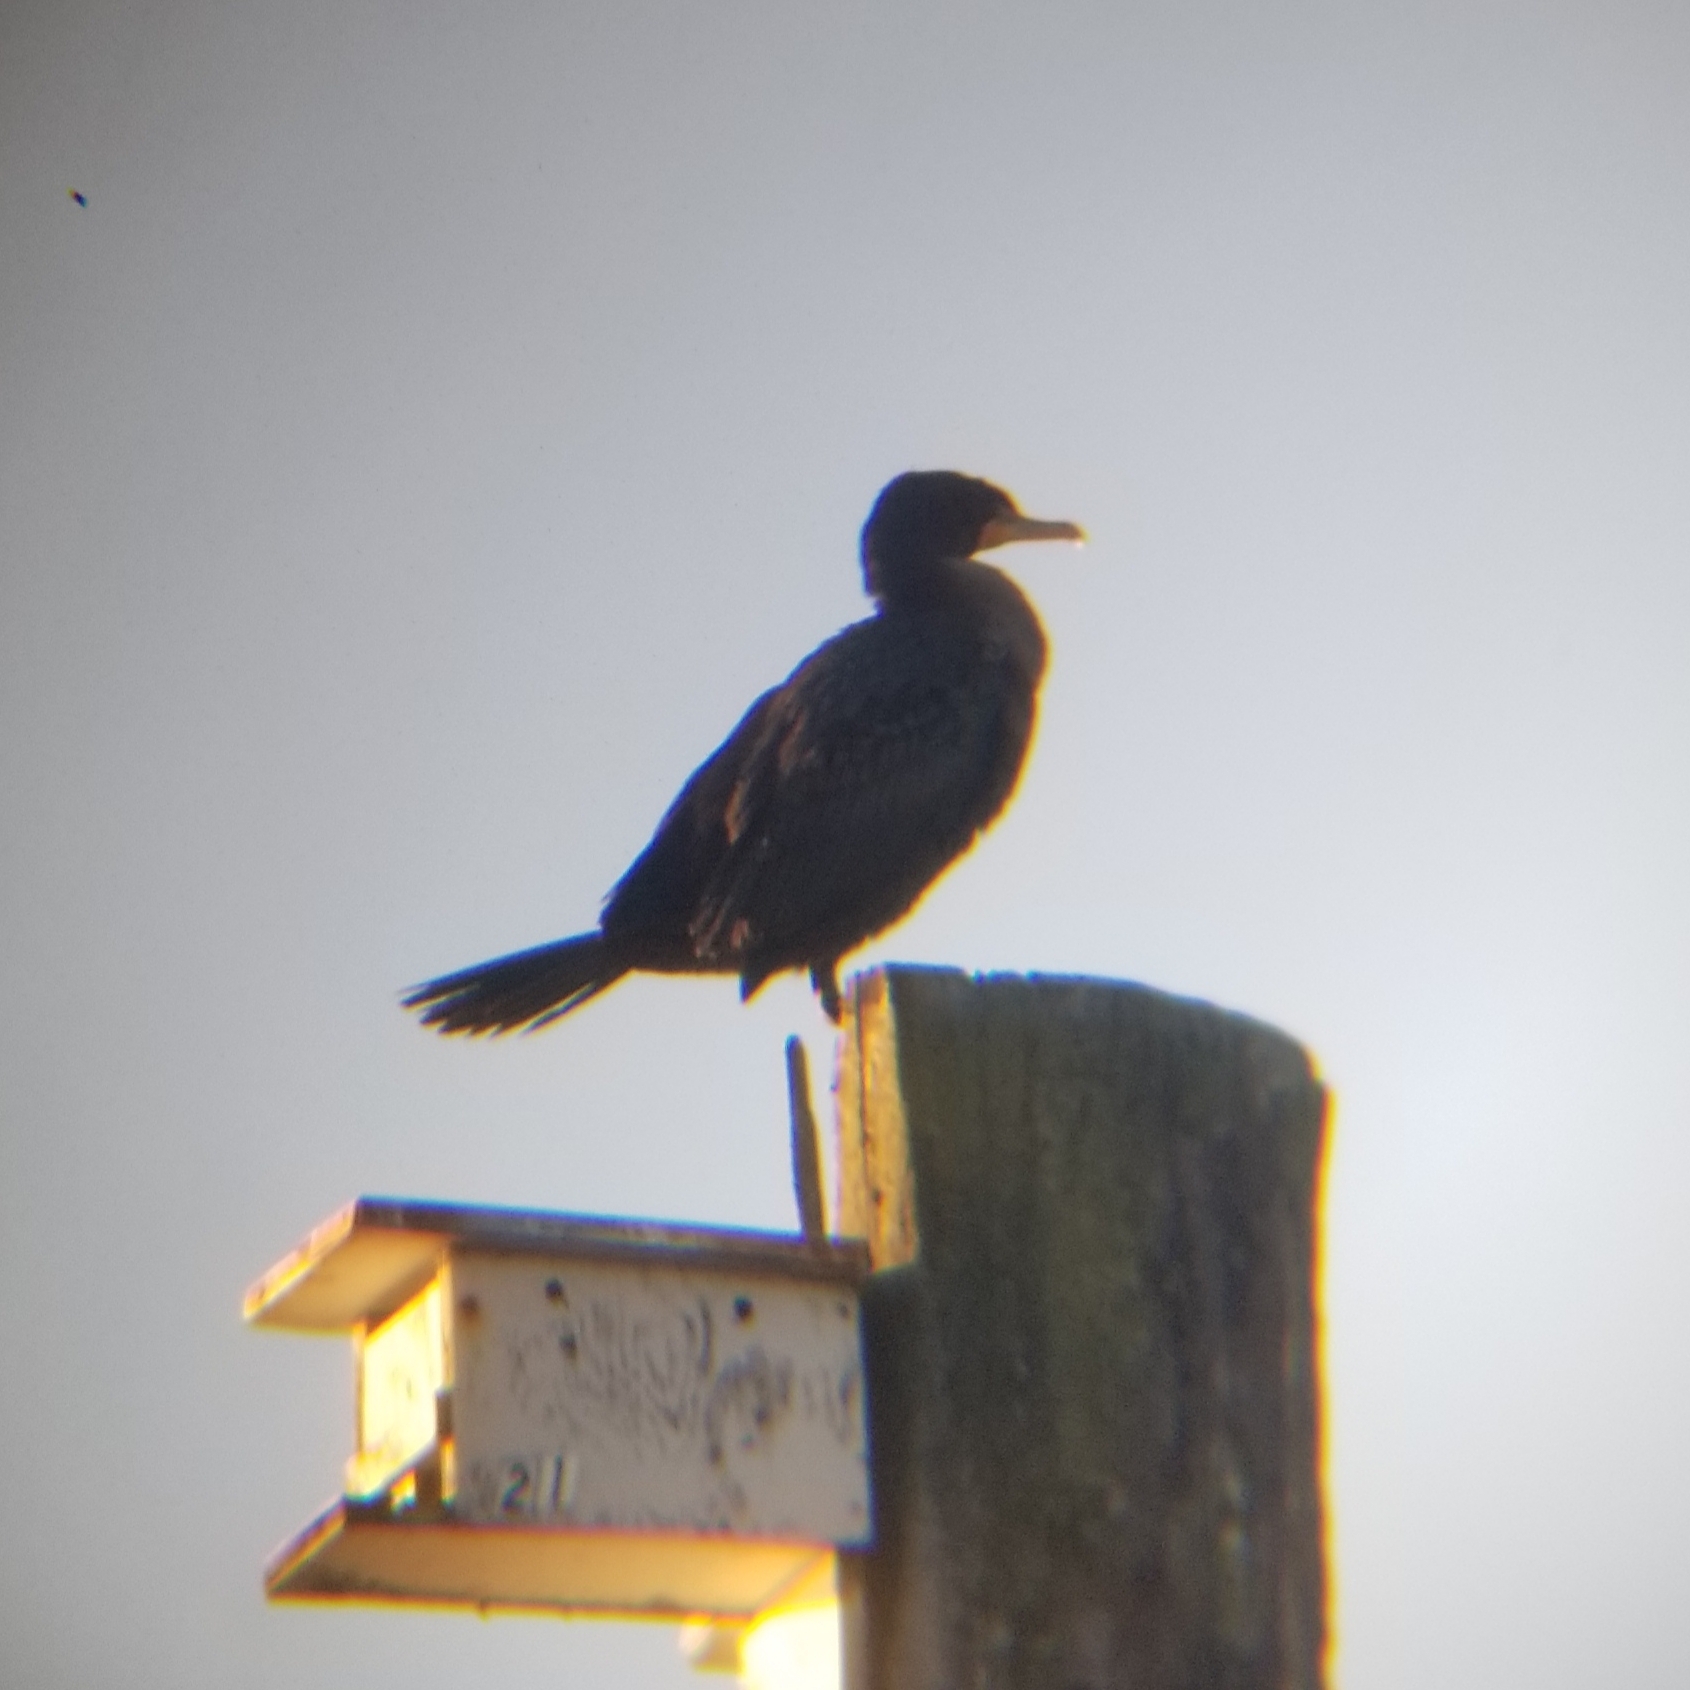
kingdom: Animalia
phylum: Chordata
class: Aves
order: Suliformes
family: Phalacrocoracidae
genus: Phalacrocorax
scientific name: Phalacrocorax auritus
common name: Double-crested cormorant
